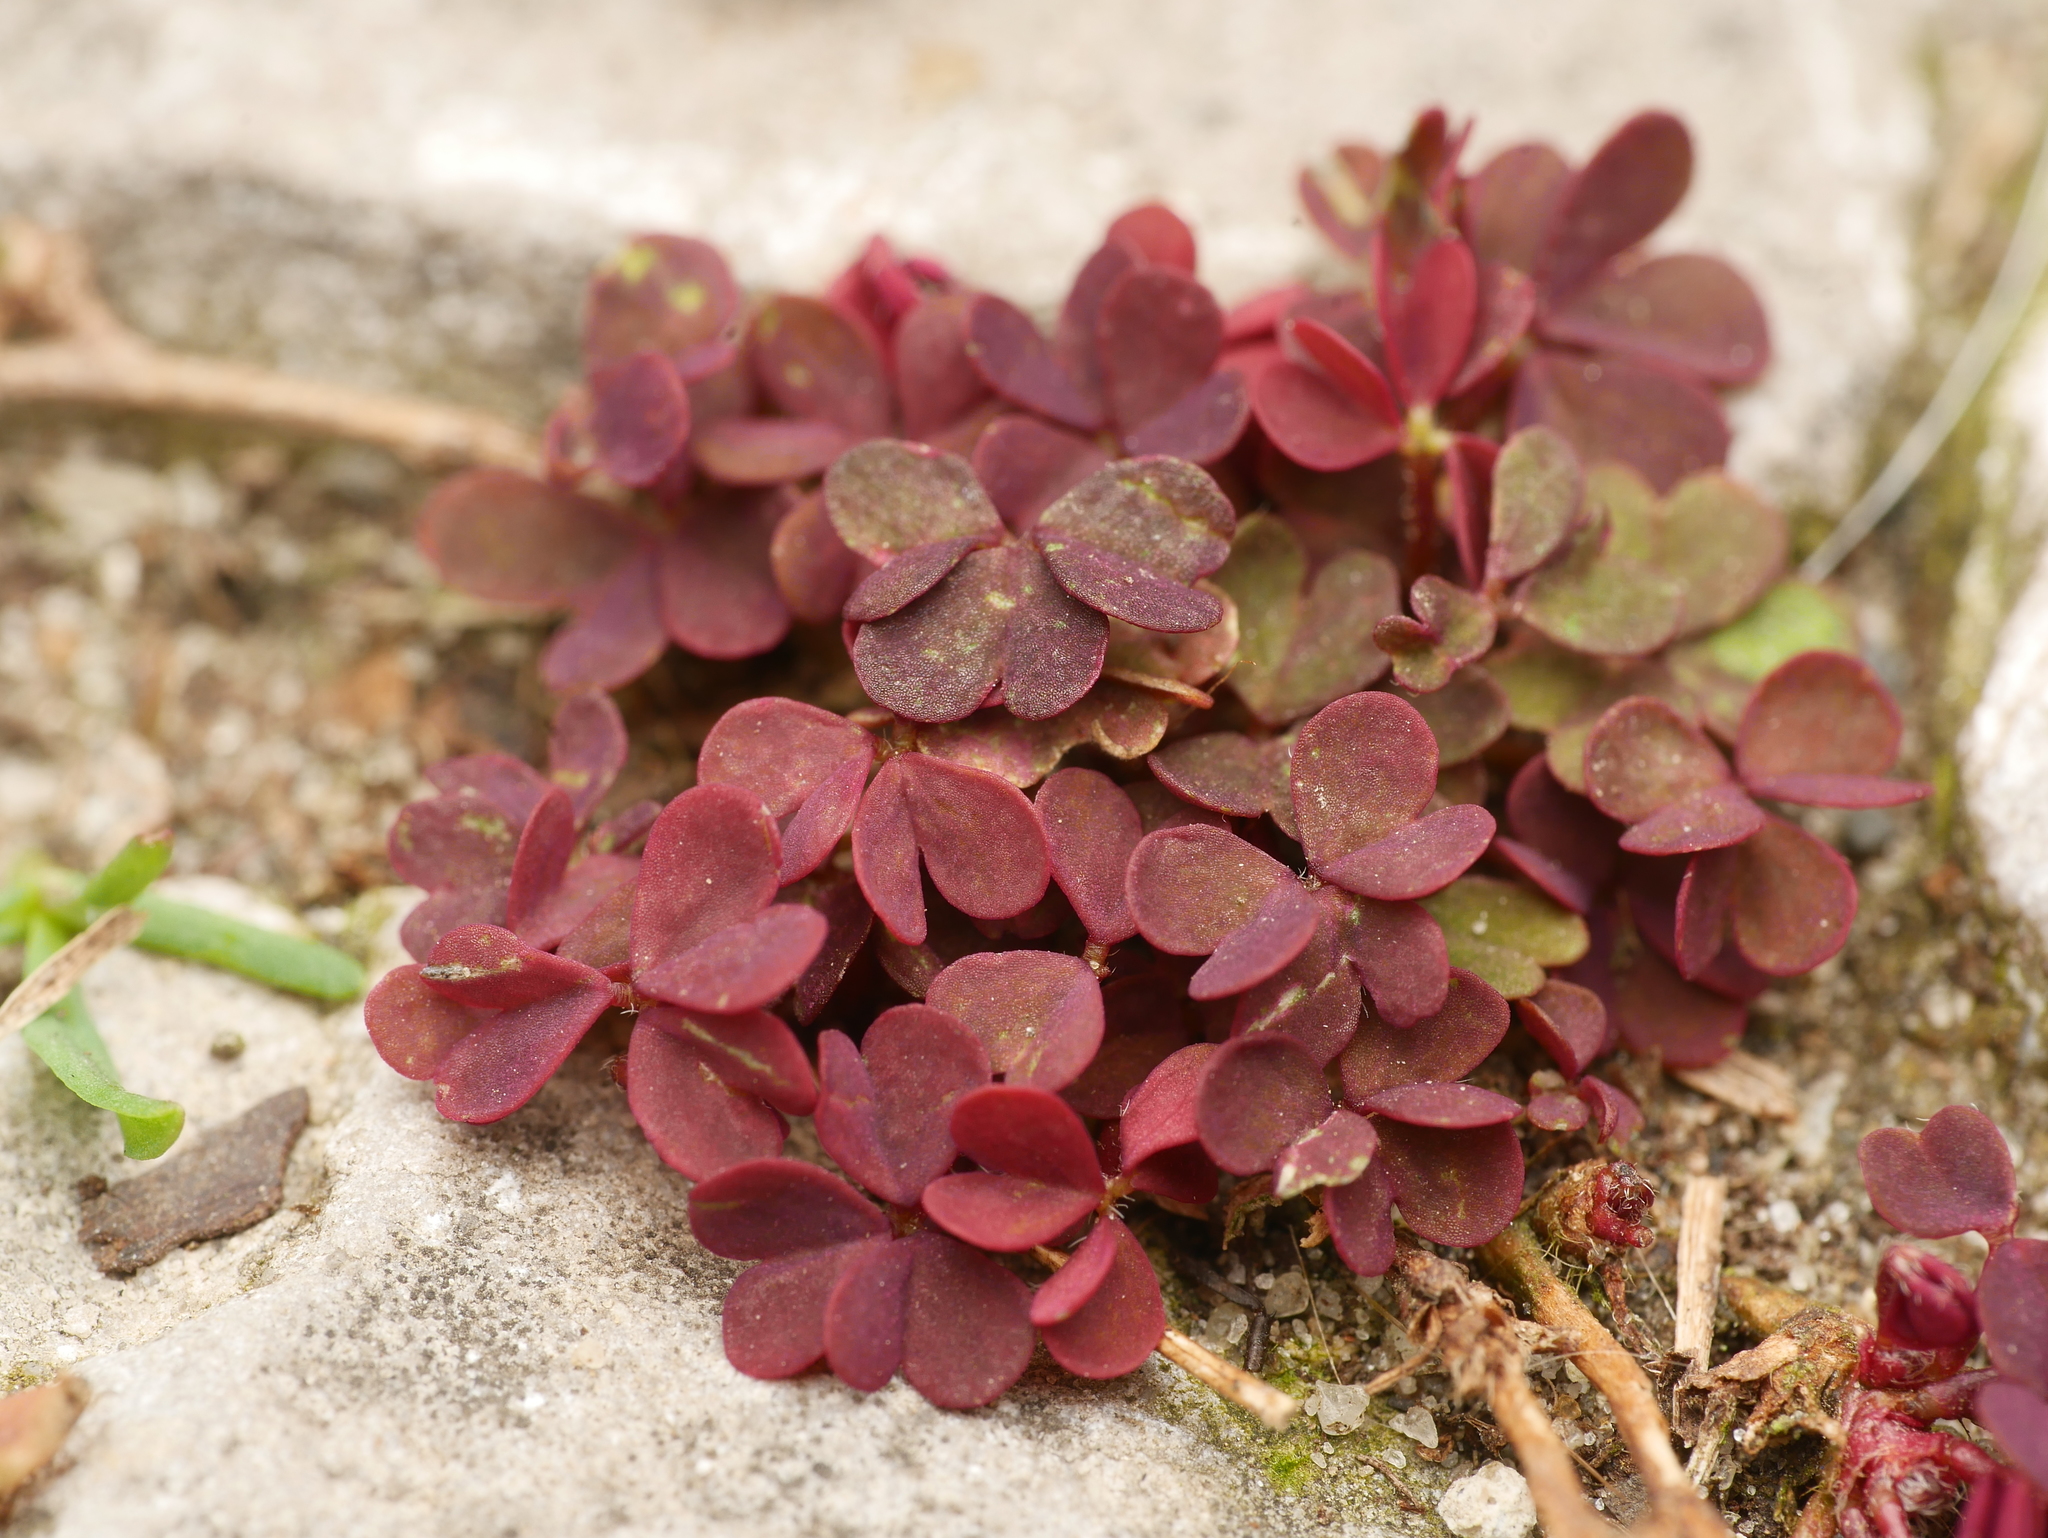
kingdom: Plantae
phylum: Tracheophyta
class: Magnoliopsida
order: Oxalidales
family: Oxalidaceae
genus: Oxalis
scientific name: Oxalis corniculata
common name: Procumbent yellow-sorrel
